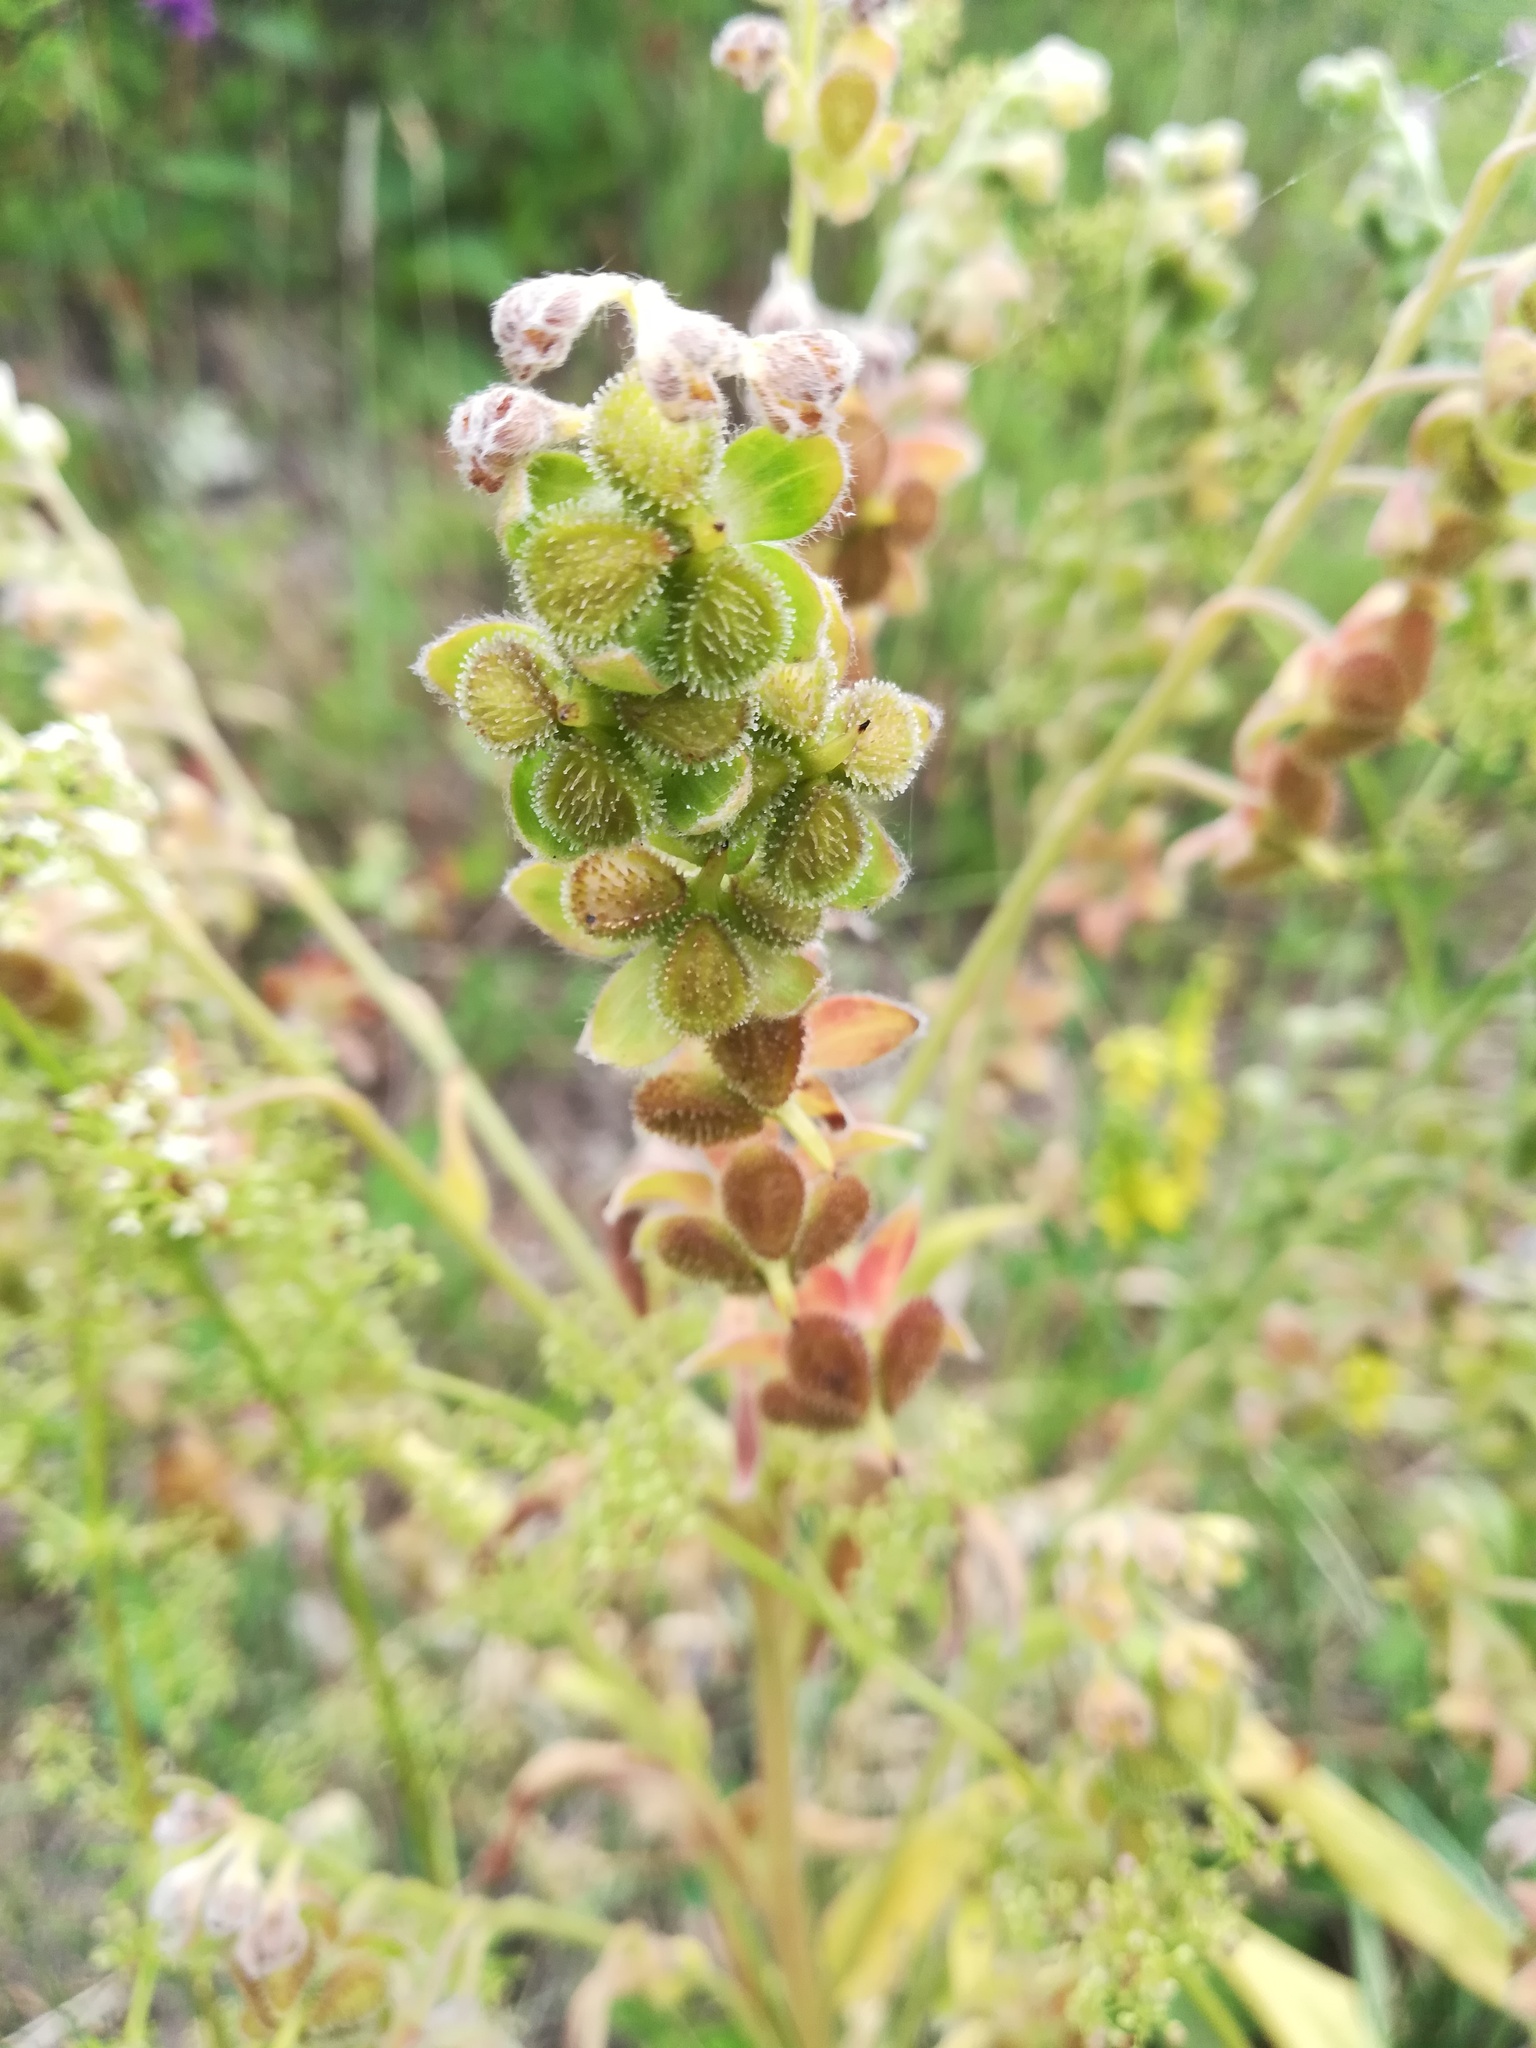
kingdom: Plantae
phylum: Tracheophyta
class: Magnoliopsida
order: Boraginales
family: Boraginaceae
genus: Cynoglossum
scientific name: Cynoglossum officinale
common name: Hound's-tongue
